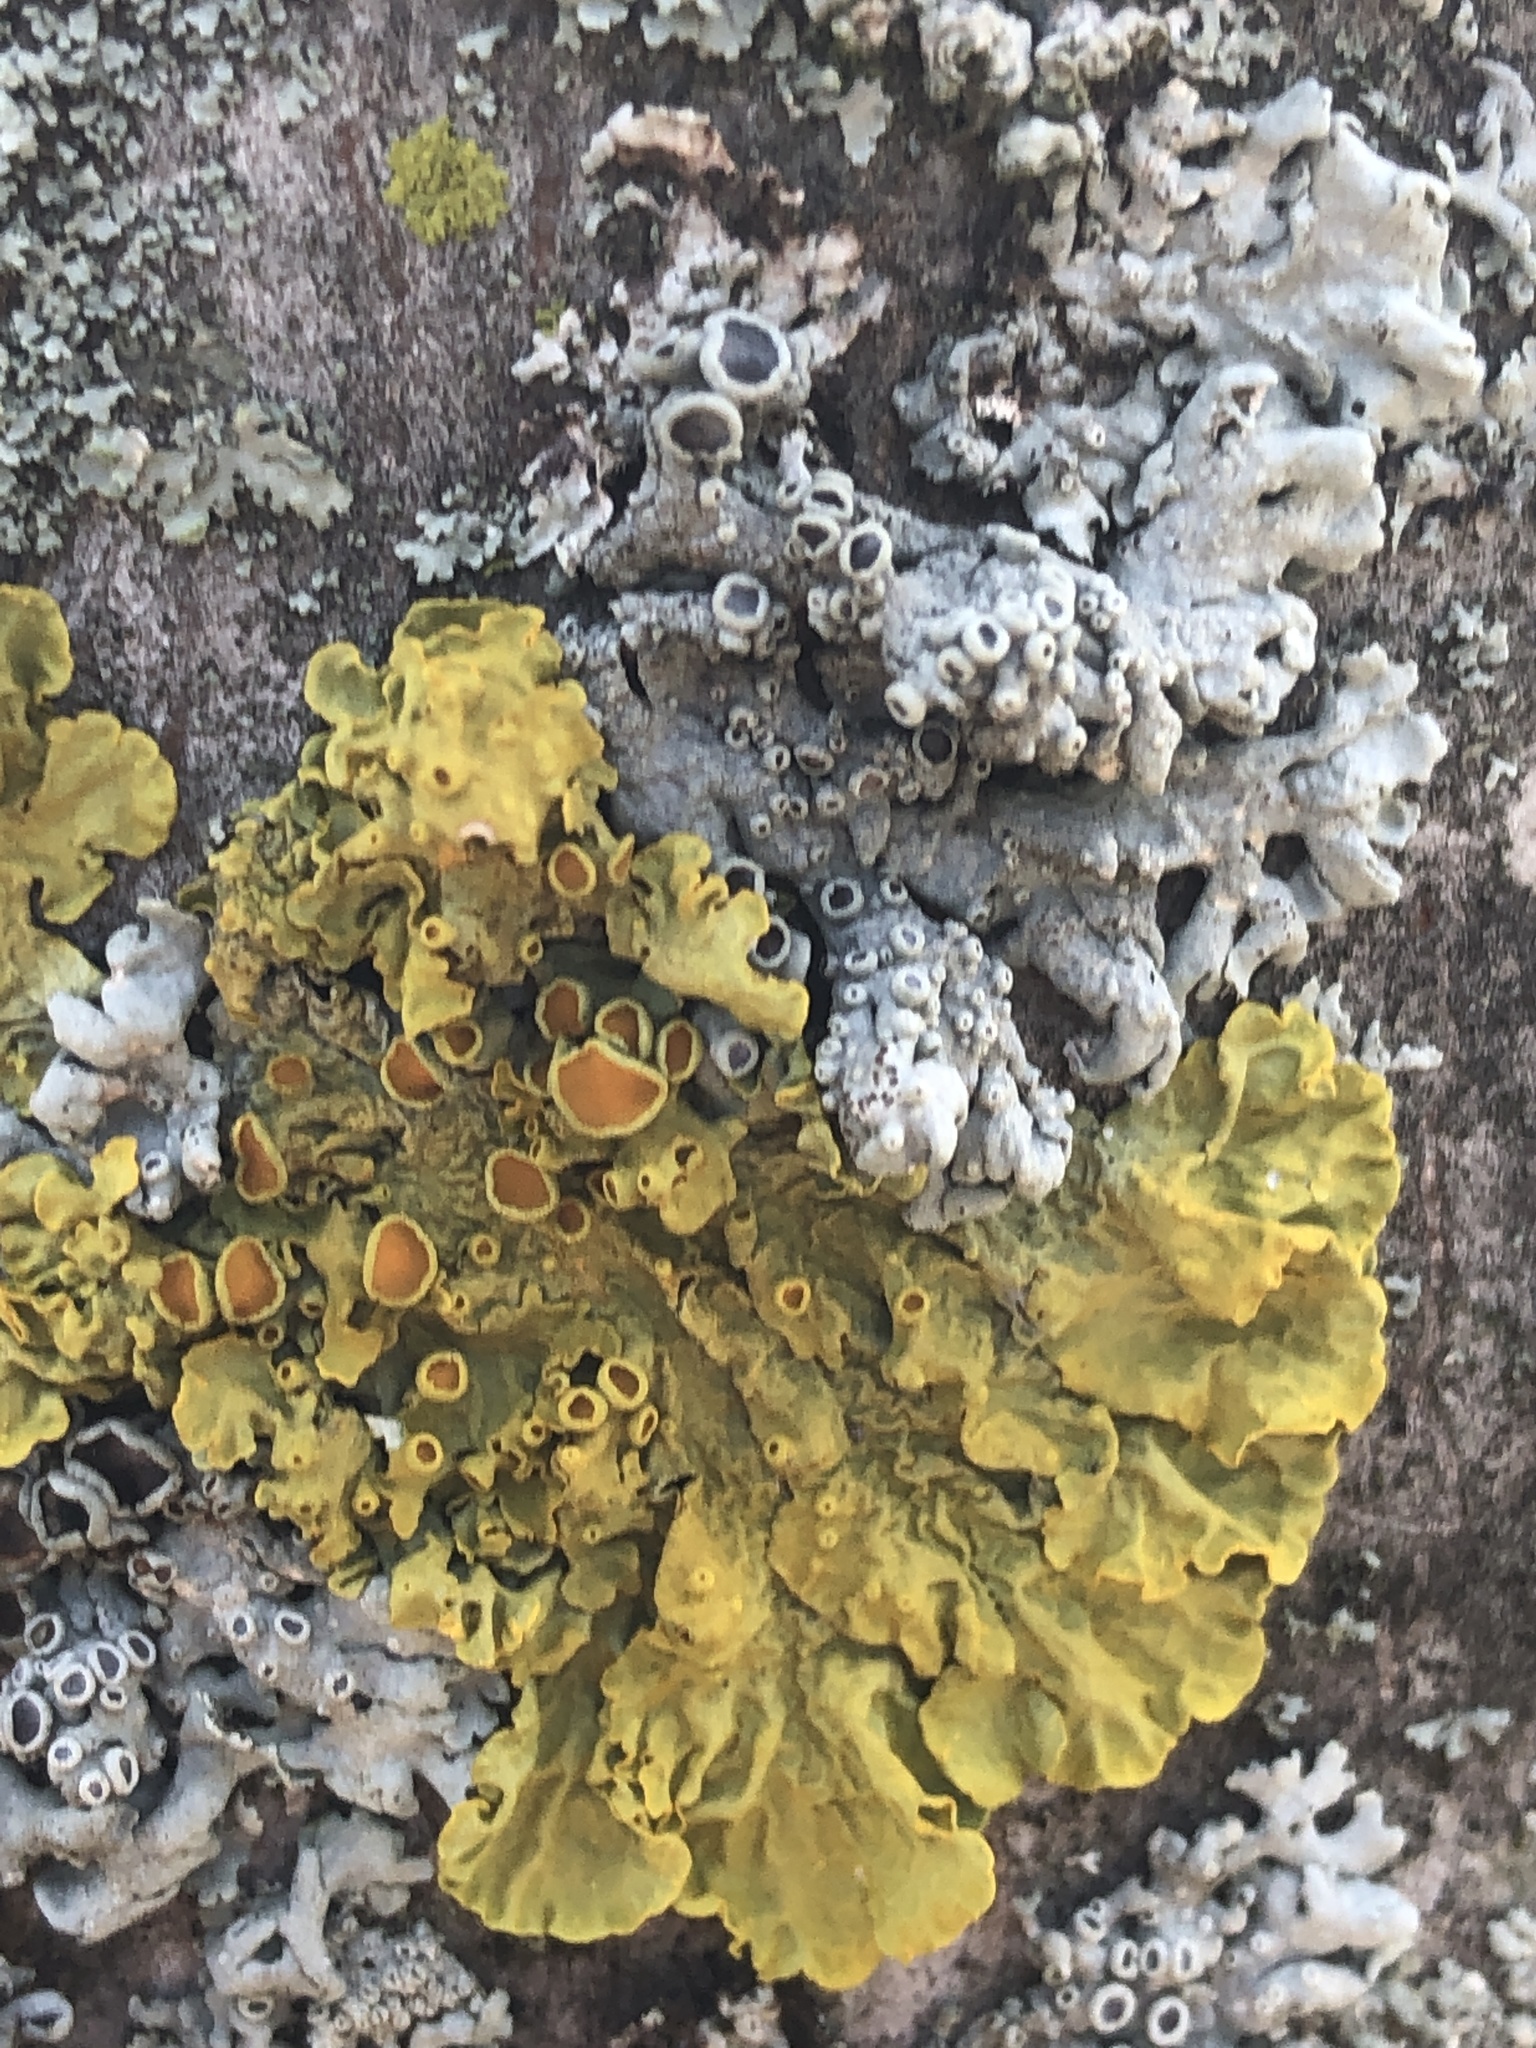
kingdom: Fungi
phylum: Ascomycota
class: Lecanoromycetes
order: Teloschistales
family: Teloschistaceae
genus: Xanthoria
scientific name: Xanthoria parietina
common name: Common orange lichen
